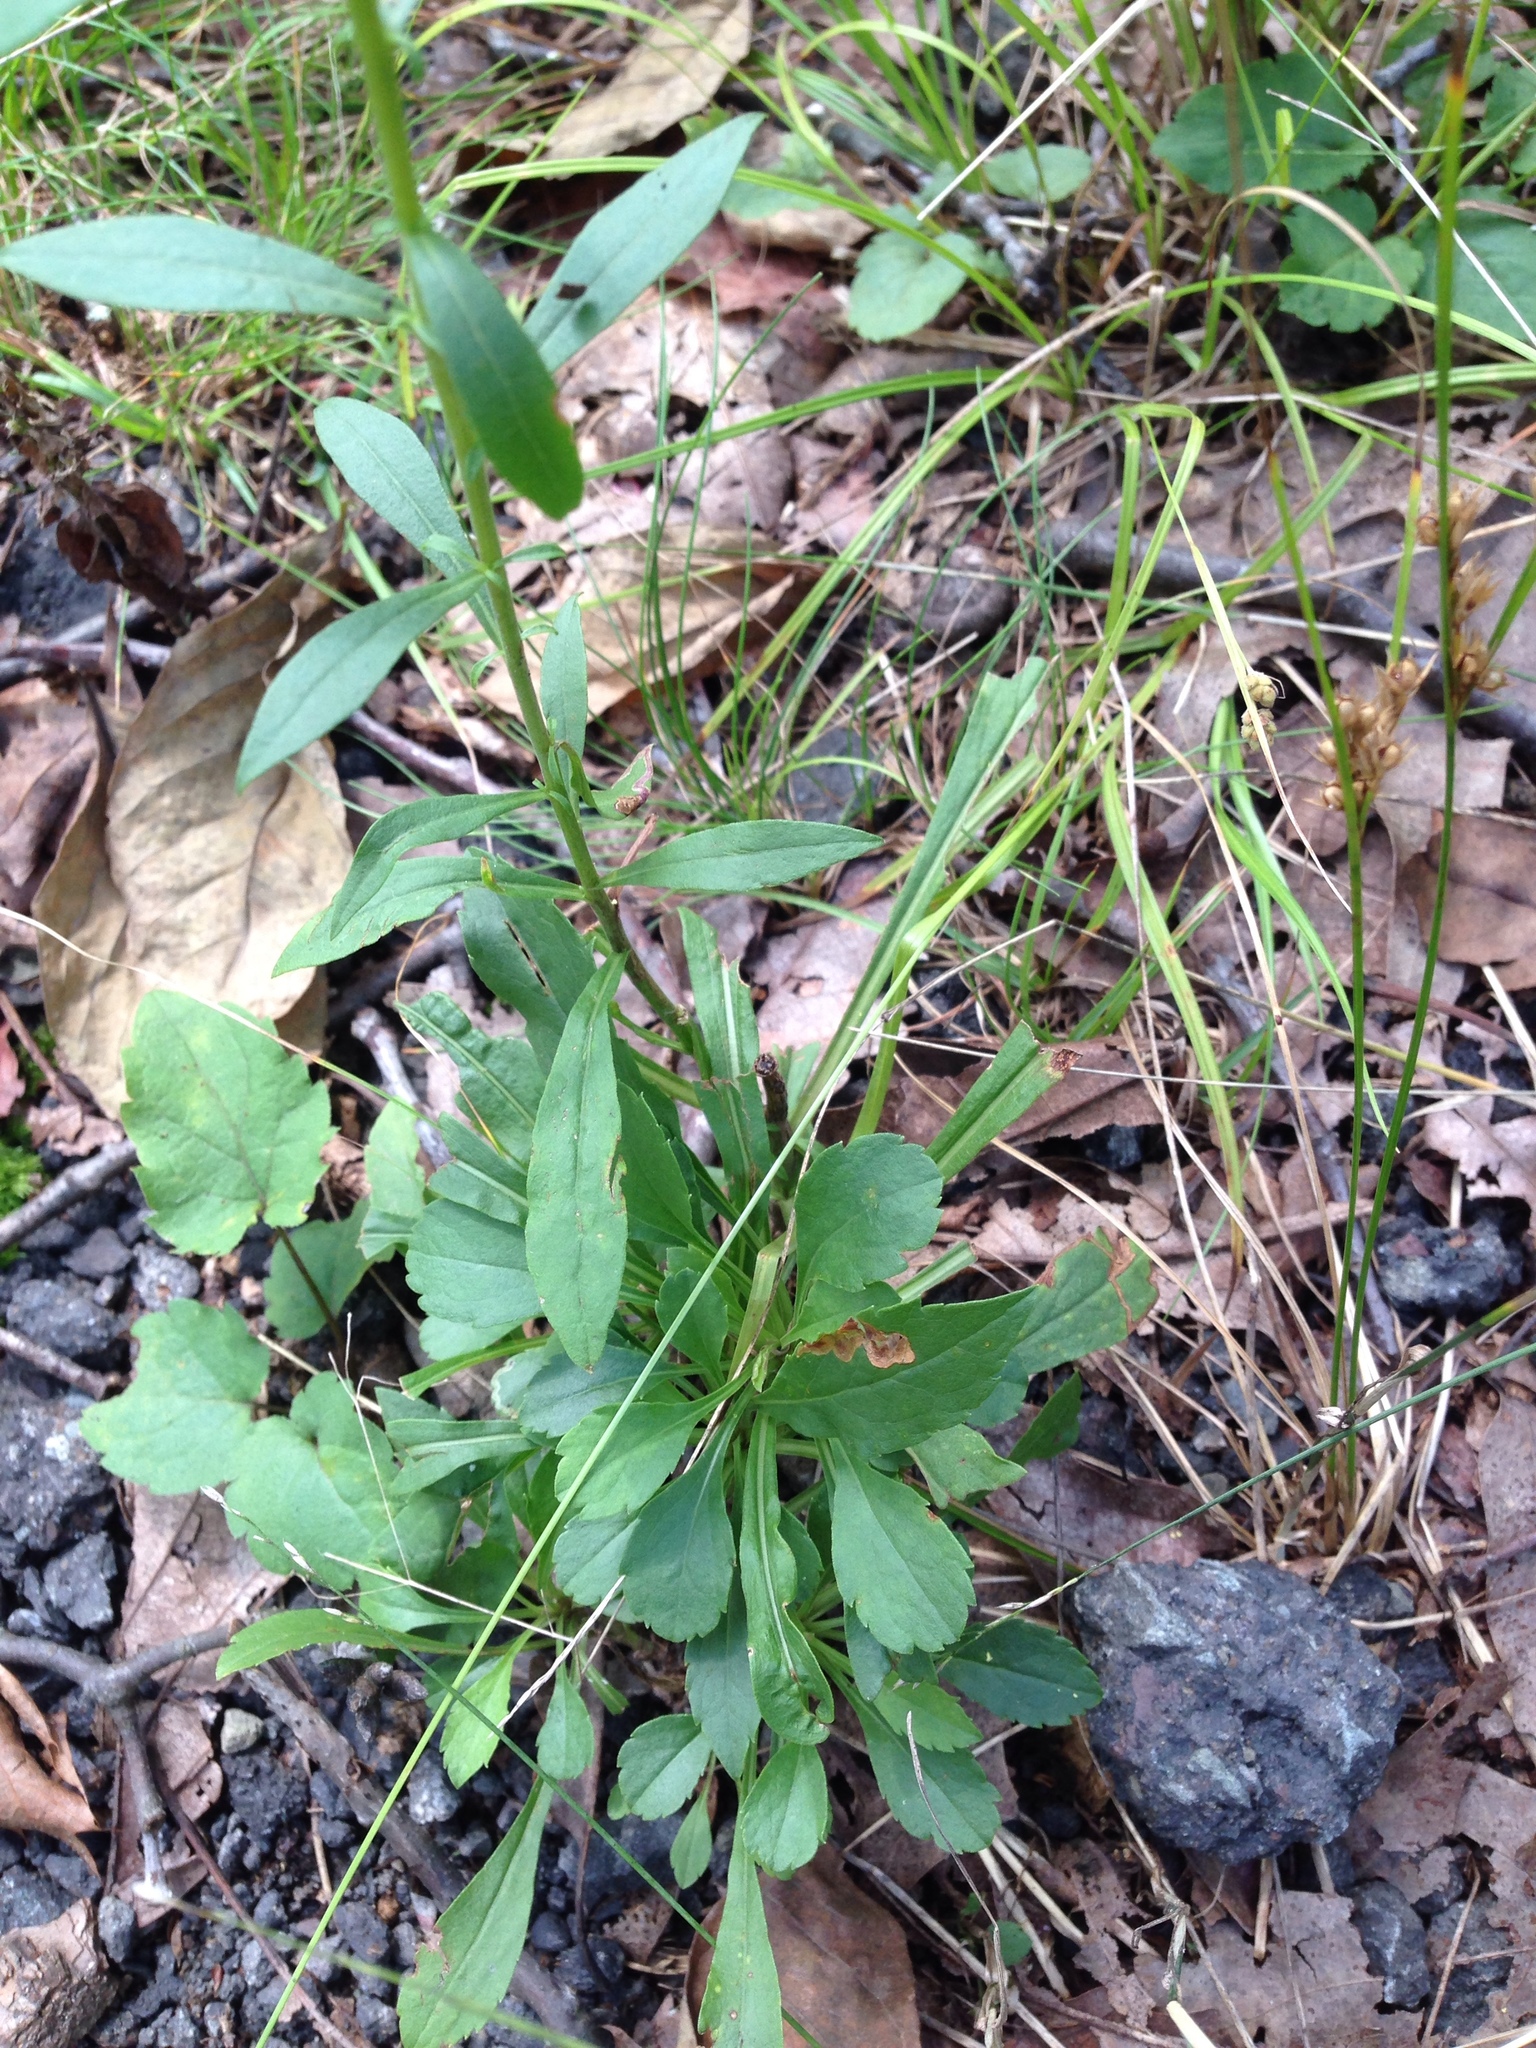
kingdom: Plantae
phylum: Tracheophyta
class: Magnoliopsida
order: Asterales
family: Asteraceae
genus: Solidago
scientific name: Solidago puberula
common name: Downy goldenrod
